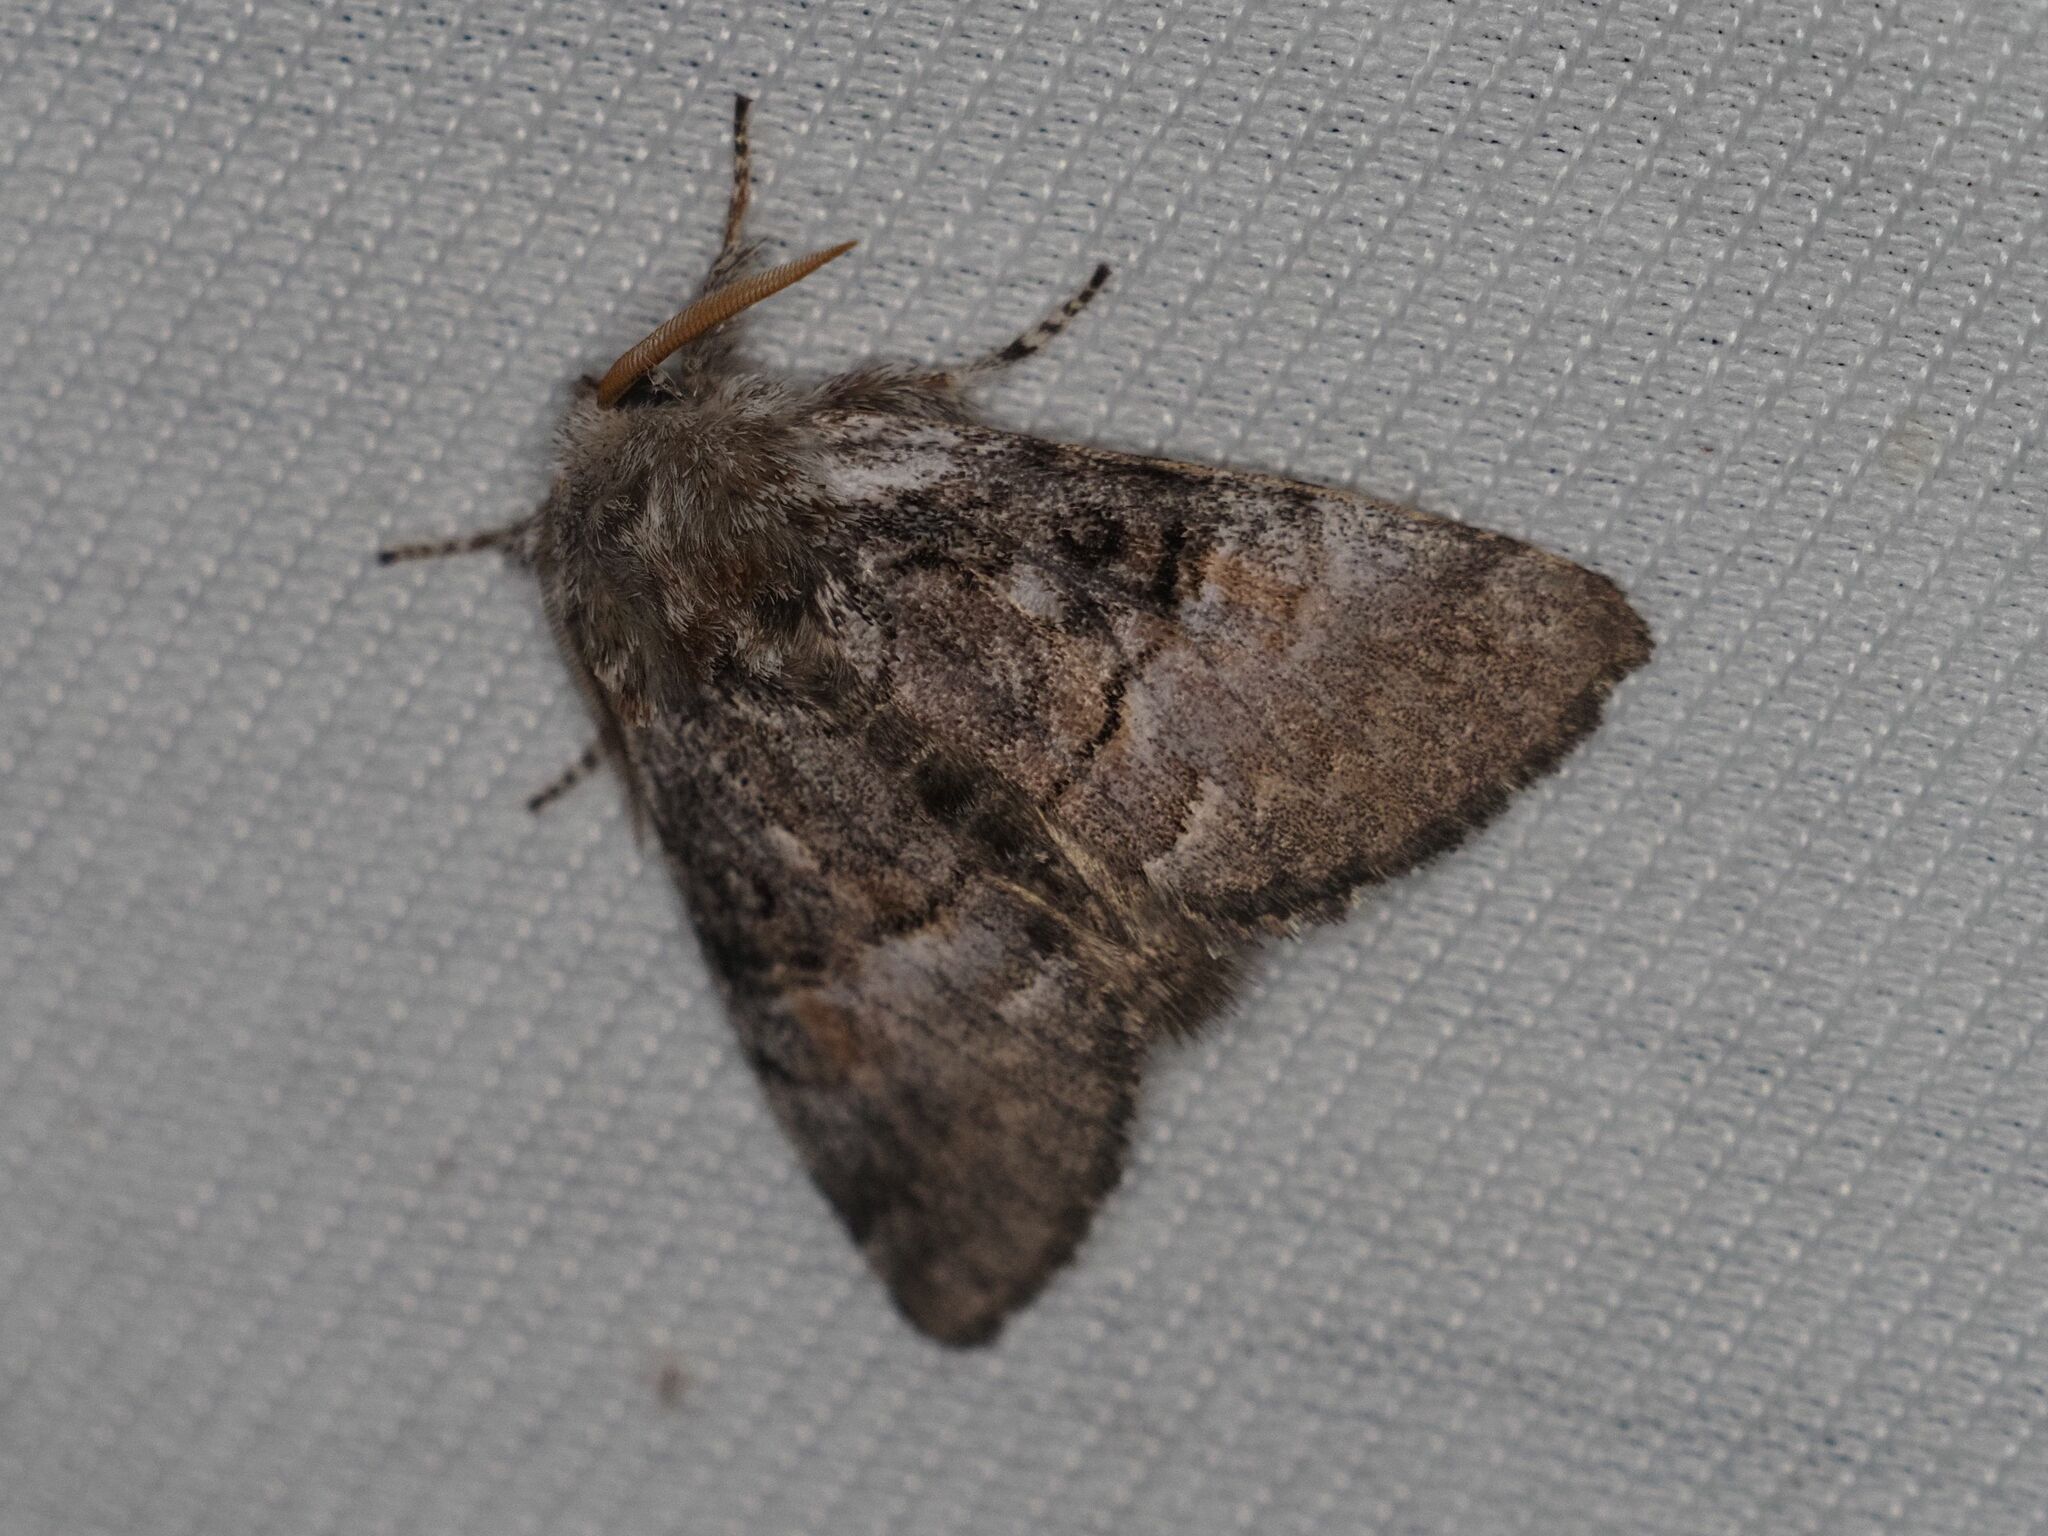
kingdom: Animalia
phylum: Arthropoda
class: Insecta
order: Lepidoptera
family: Noctuidae
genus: Colocasia
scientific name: Colocasia coryli
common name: Nut-tree tussock
